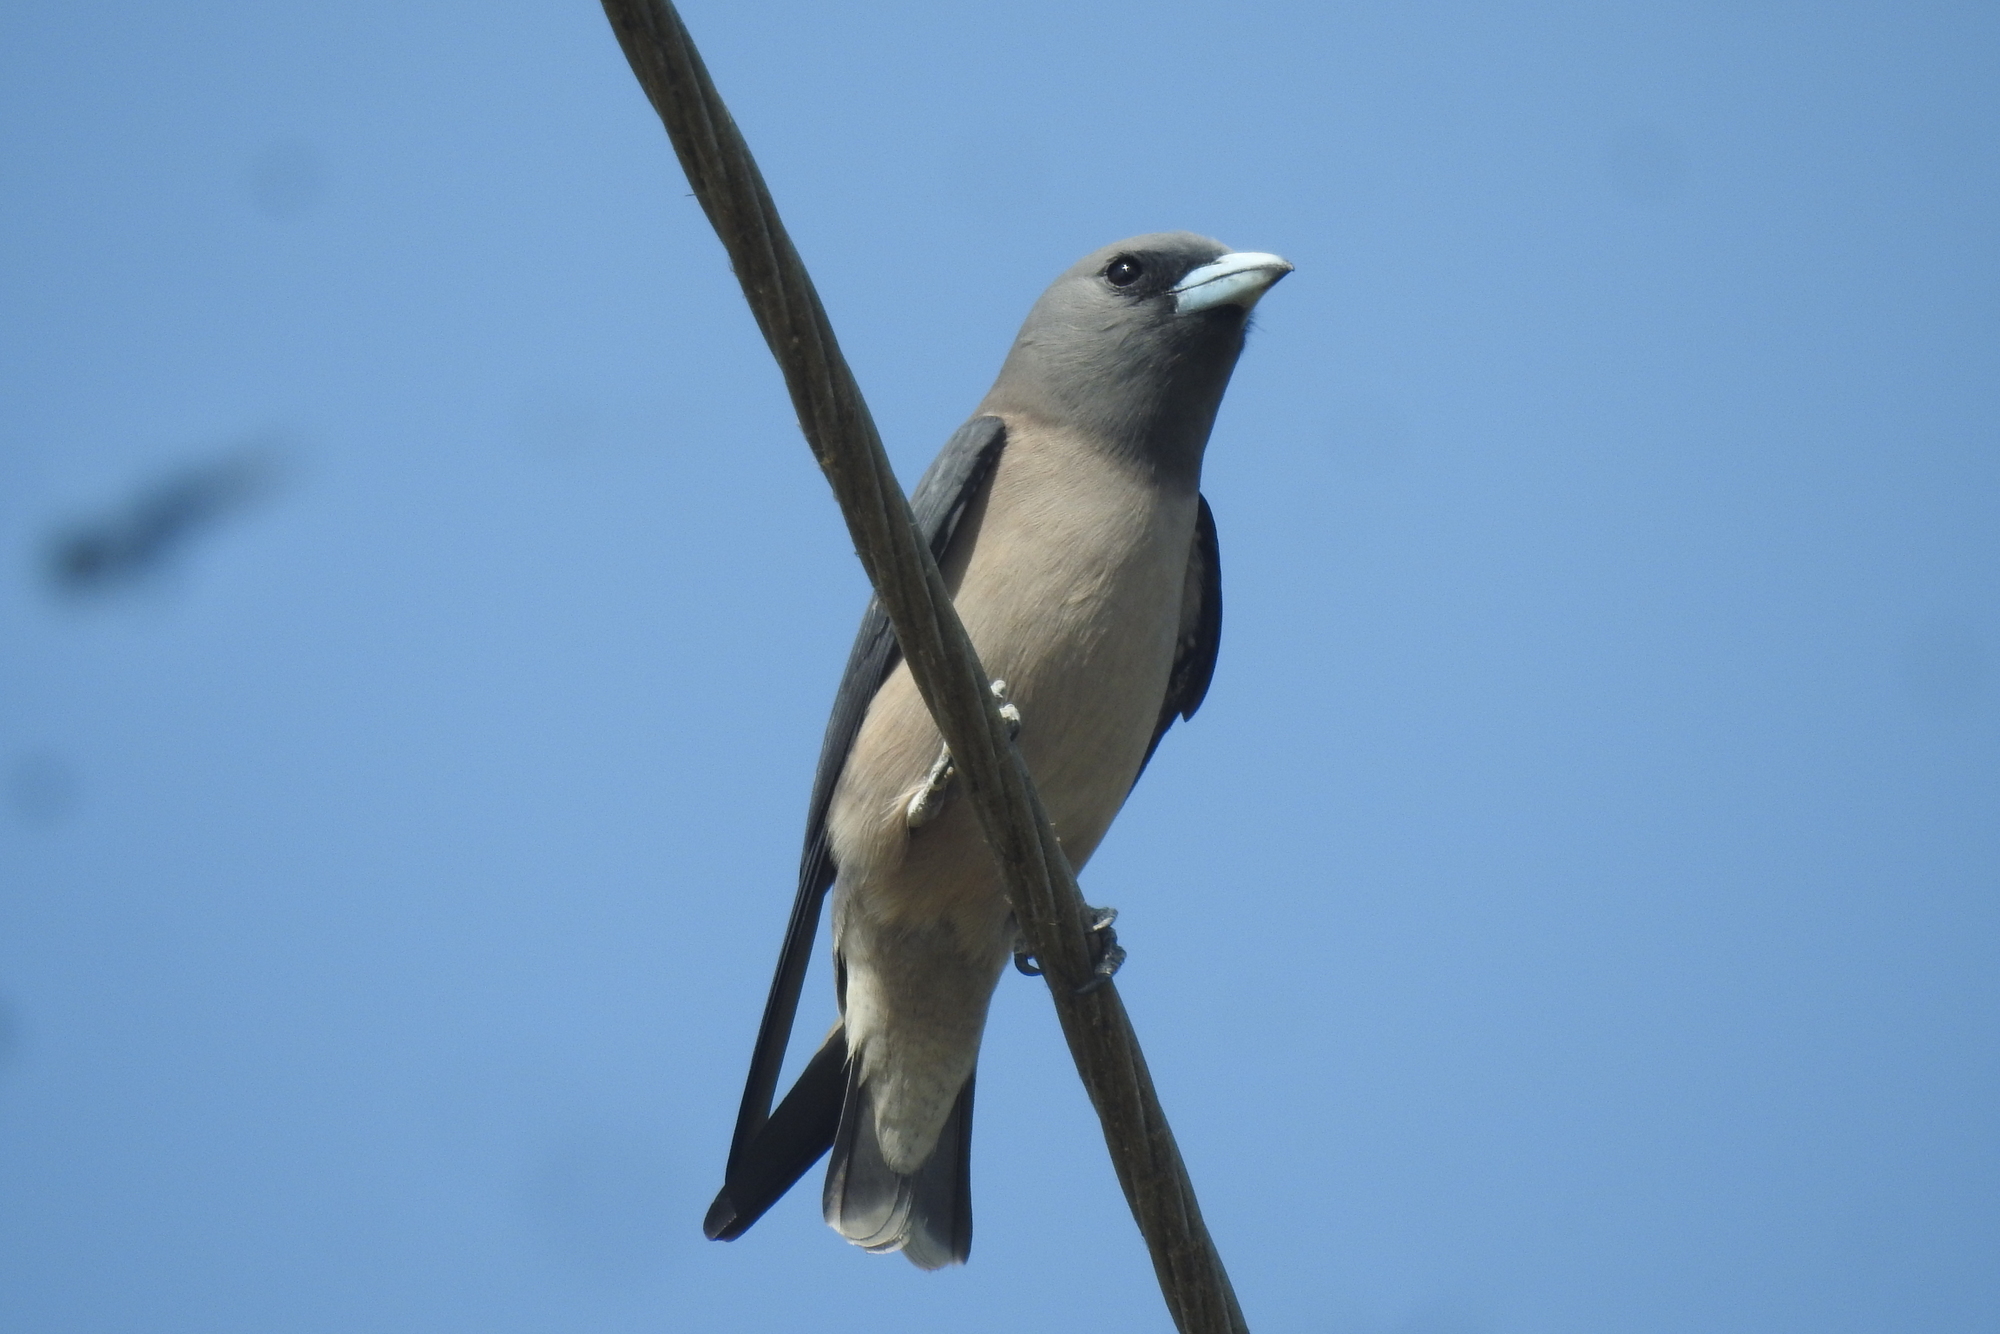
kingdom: Animalia
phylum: Chordata
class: Aves
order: Passeriformes
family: Artamidae
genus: Artamus
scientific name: Artamus fuscus
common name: Ashy woodswallow
